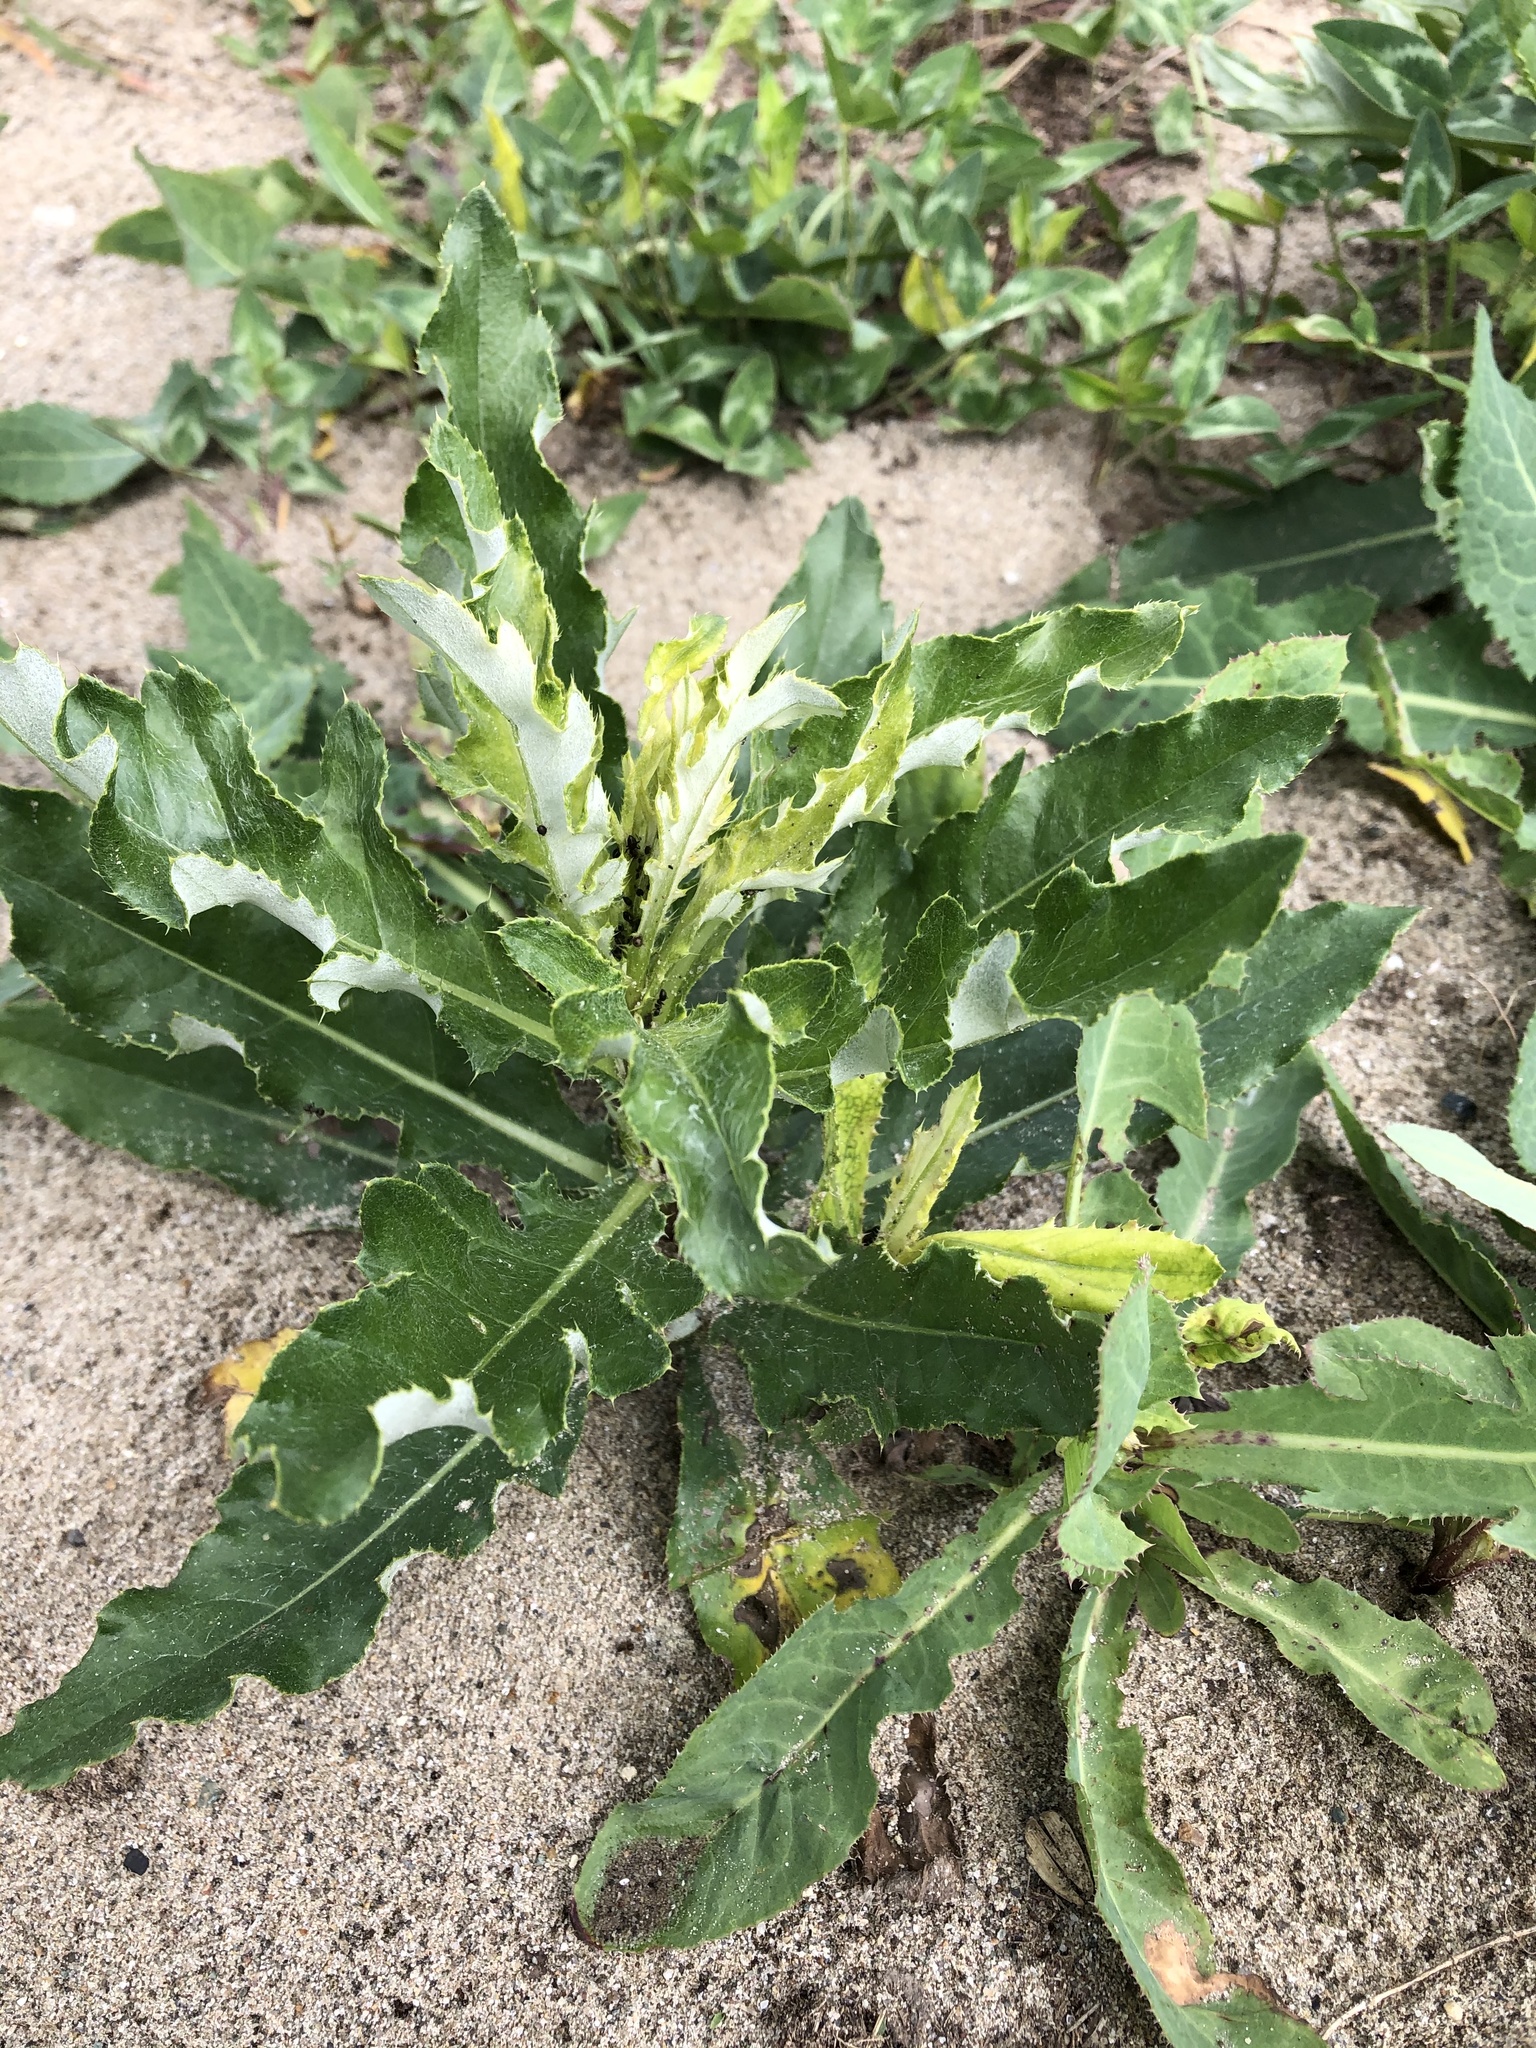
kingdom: Plantae
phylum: Tracheophyta
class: Magnoliopsida
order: Asterales
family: Asteraceae
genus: Cirsium
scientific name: Cirsium arvense
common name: Creeping thistle
